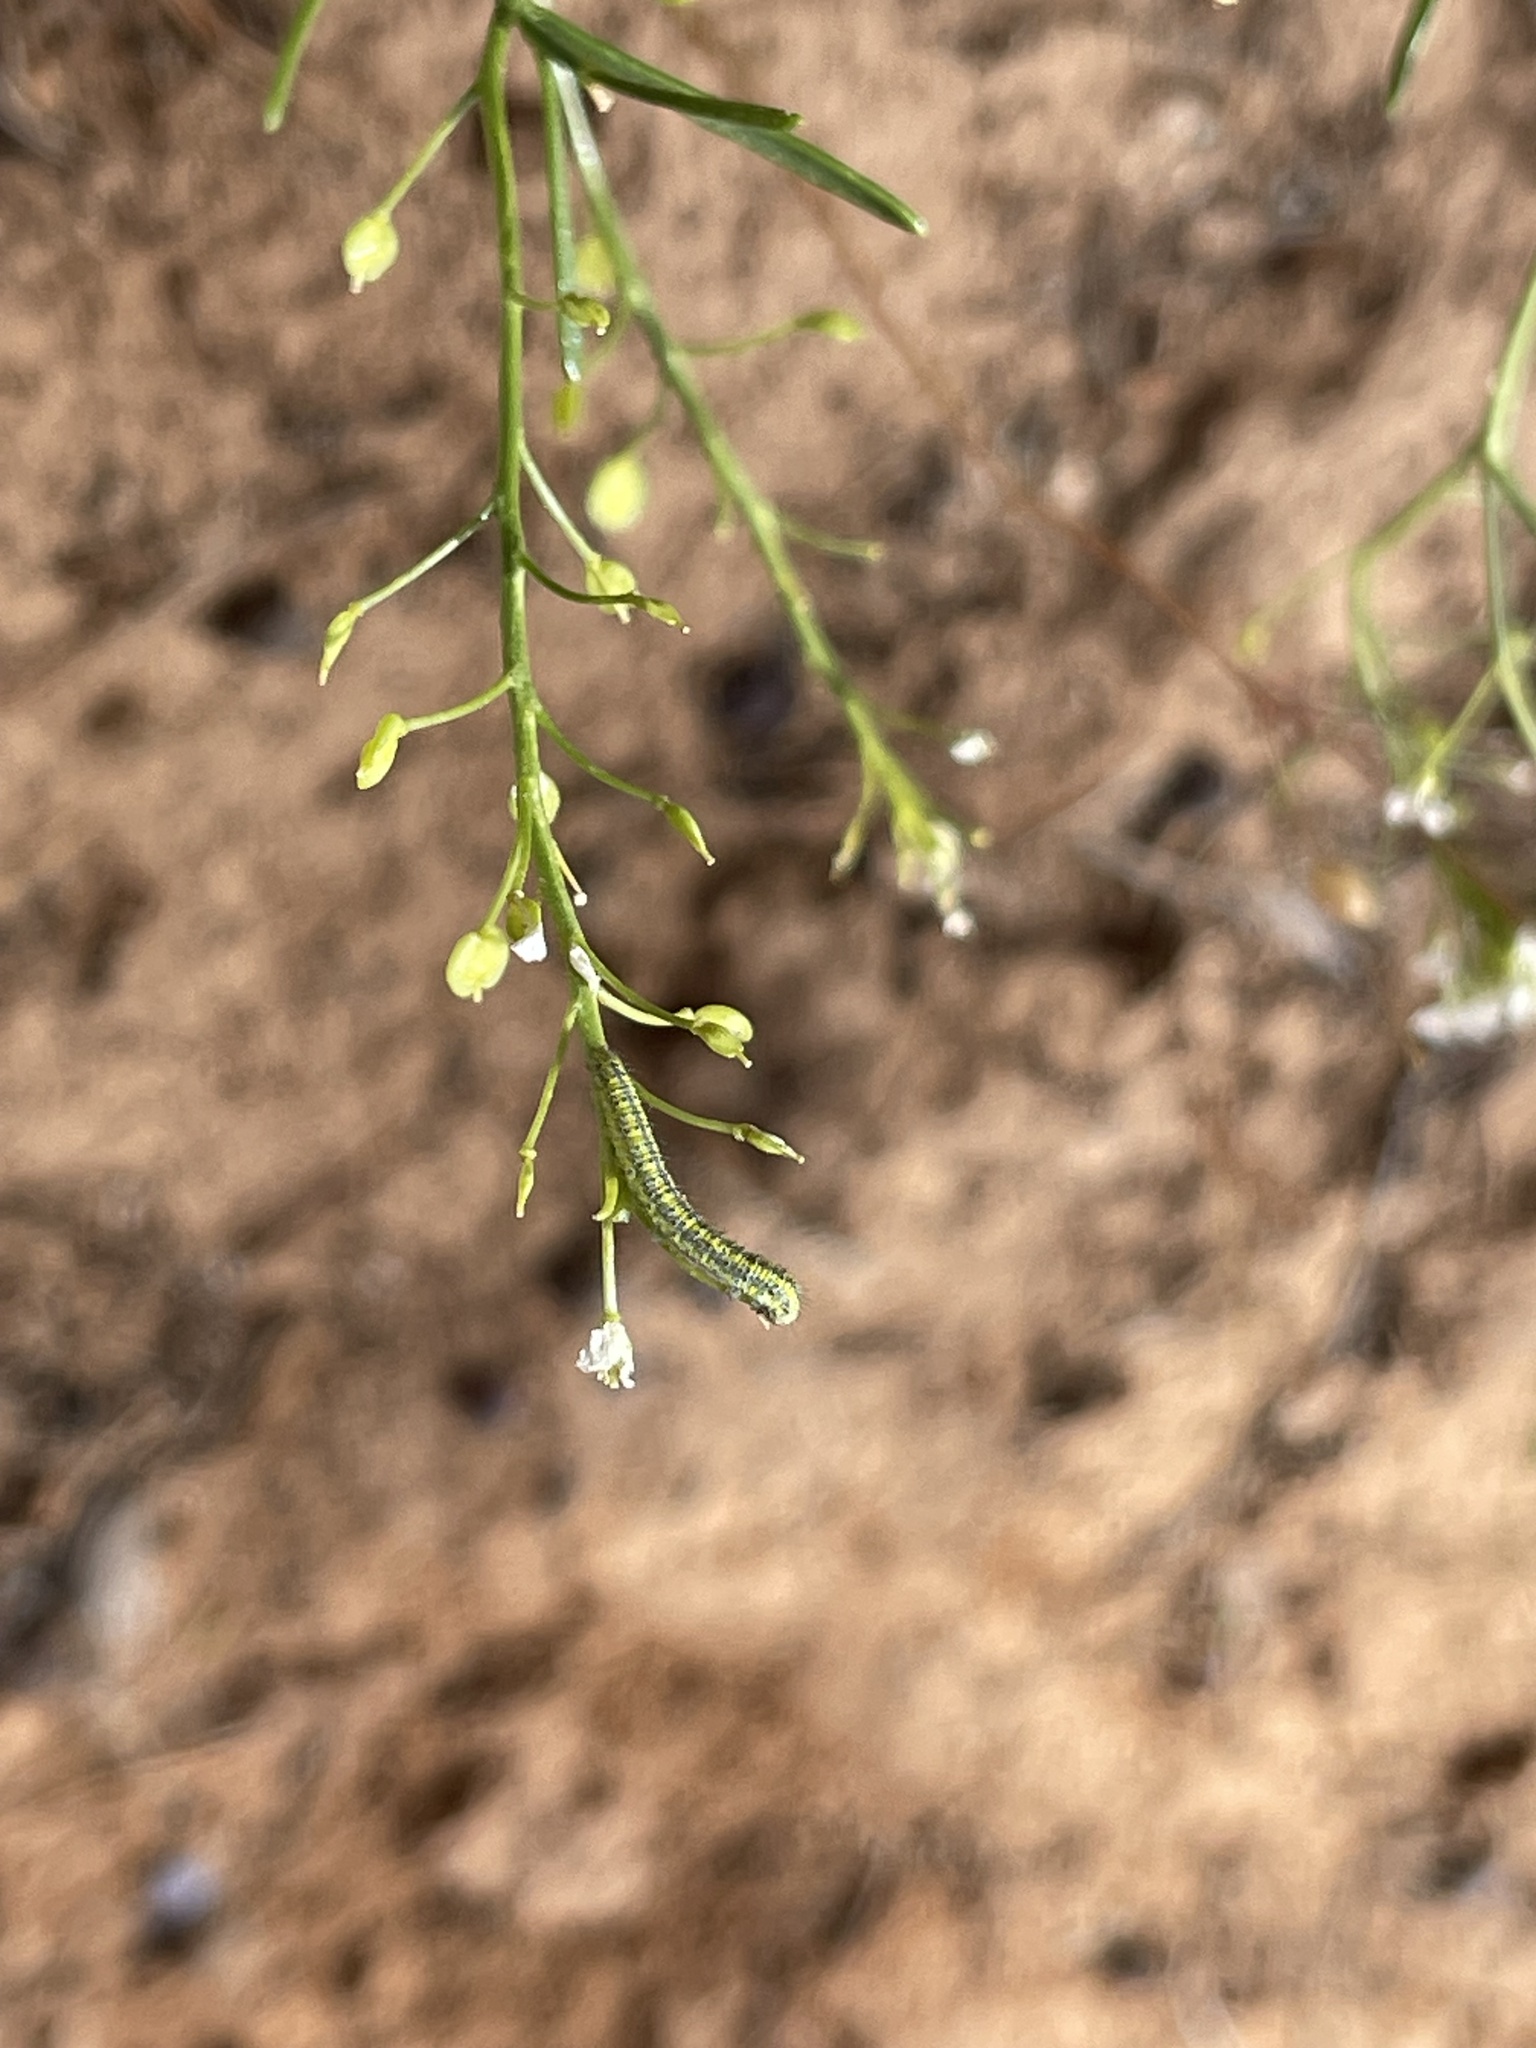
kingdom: Animalia
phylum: Arthropoda
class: Insecta
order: Lepidoptera
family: Pieridae
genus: Pontia
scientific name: Pontia protodice
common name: Checkered white
